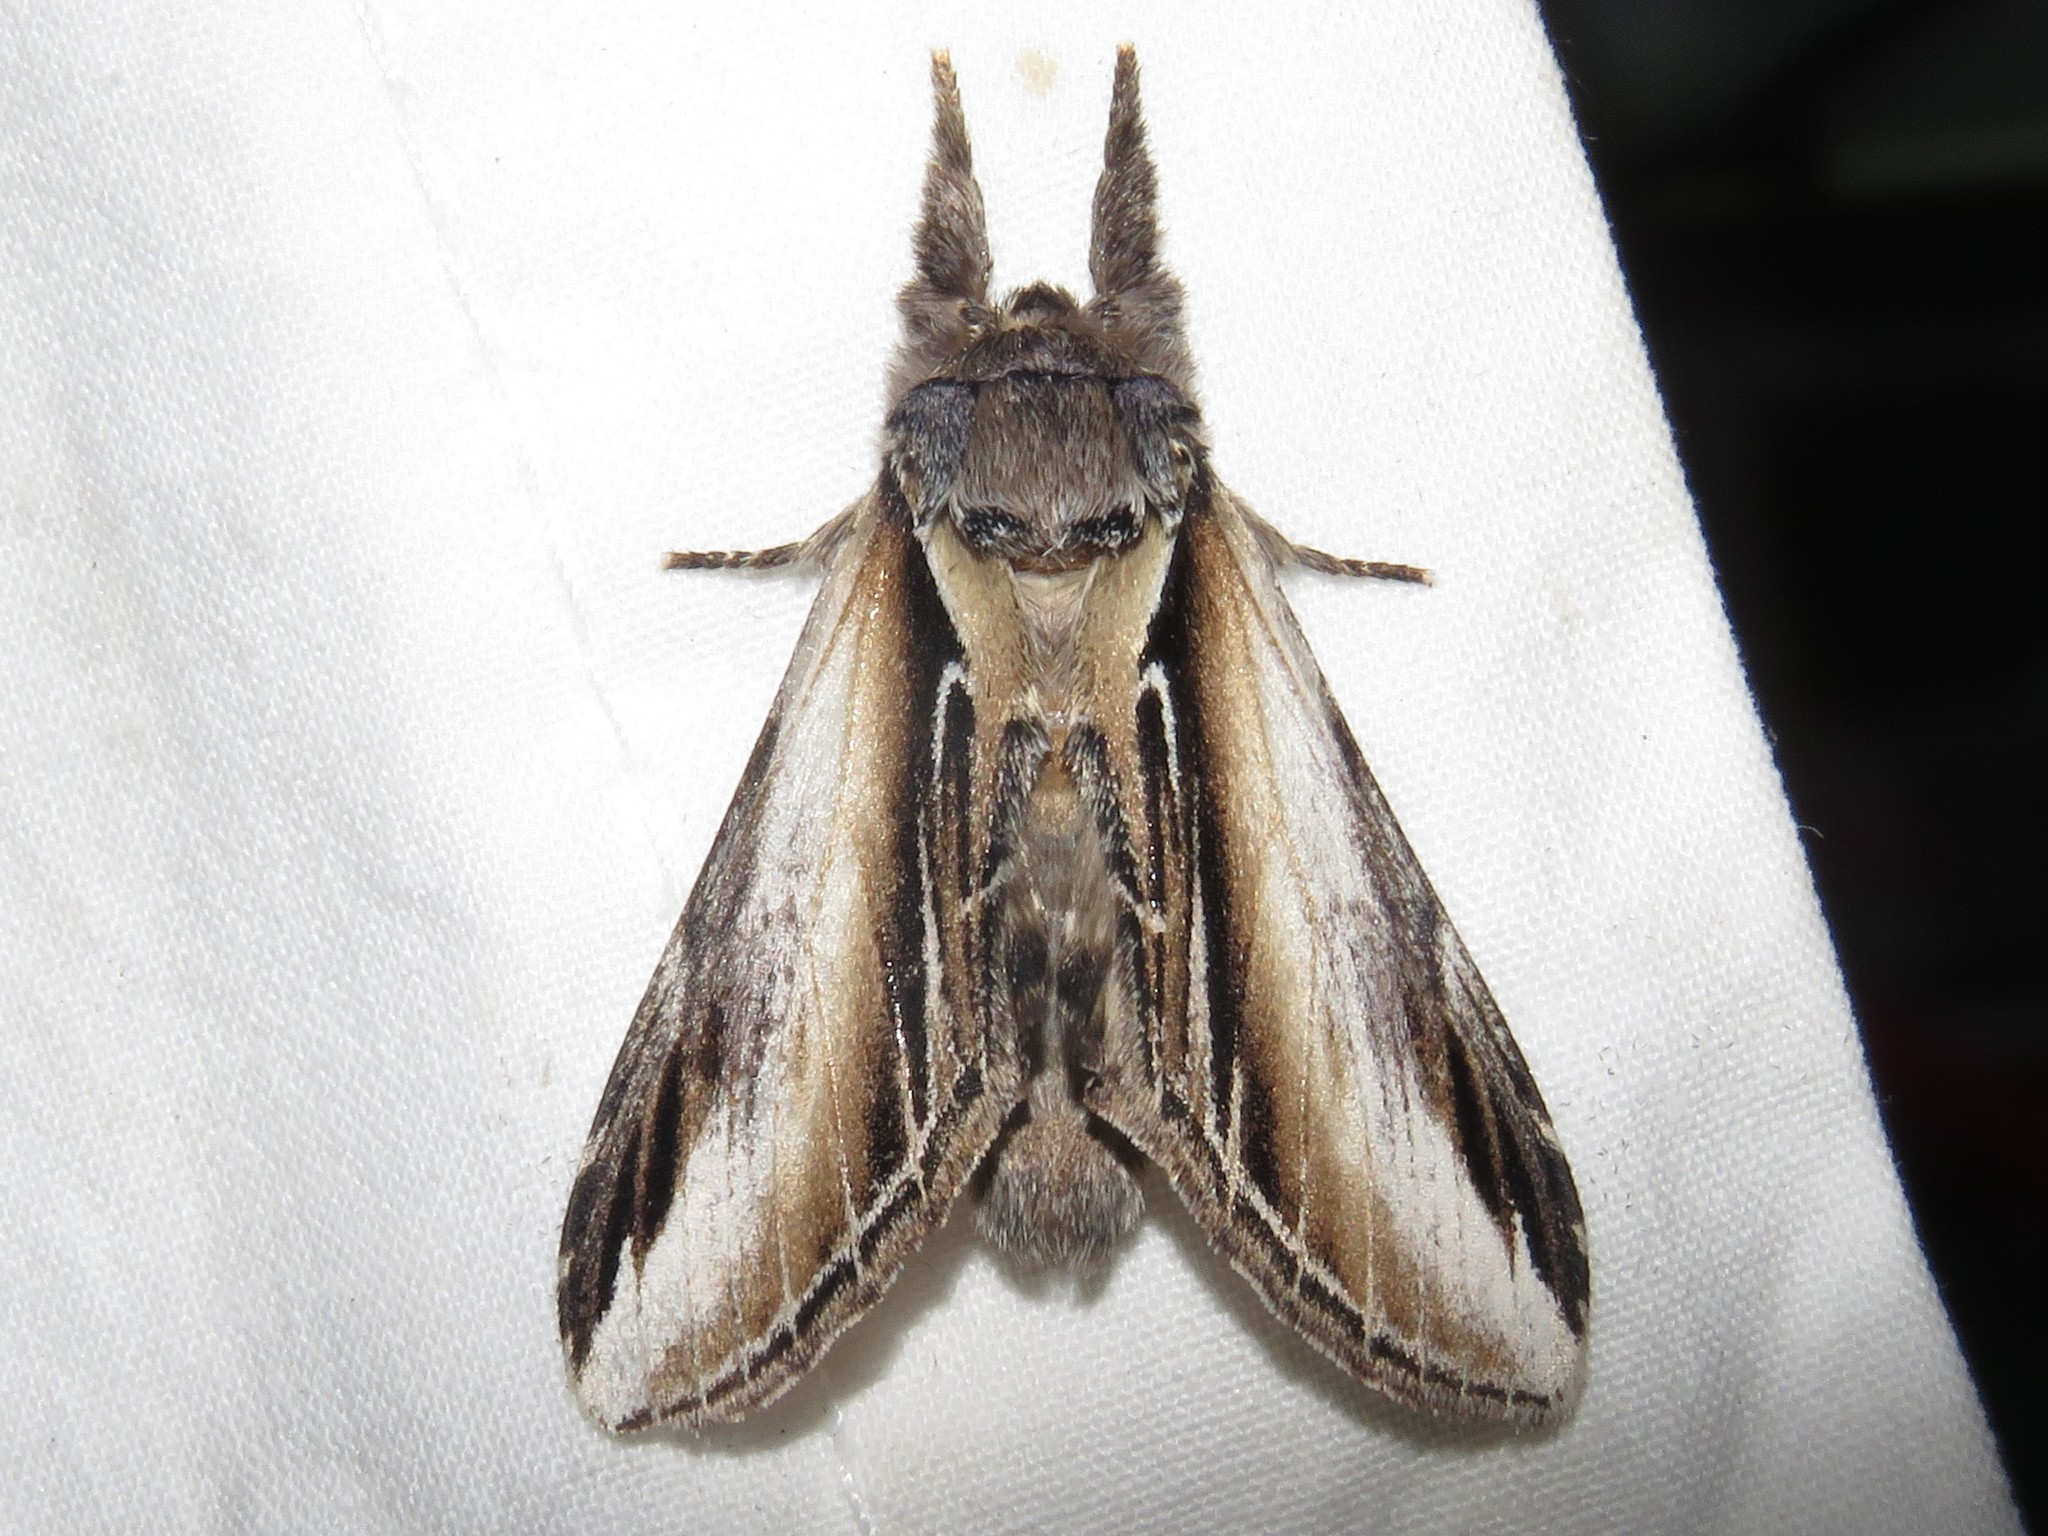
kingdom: Animalia
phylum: Arthropoda
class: Insecta
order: Lepidoptera
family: Notodontidae
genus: Pheosia
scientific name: Pheosia rimosa
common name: Black-rimmed prominent
